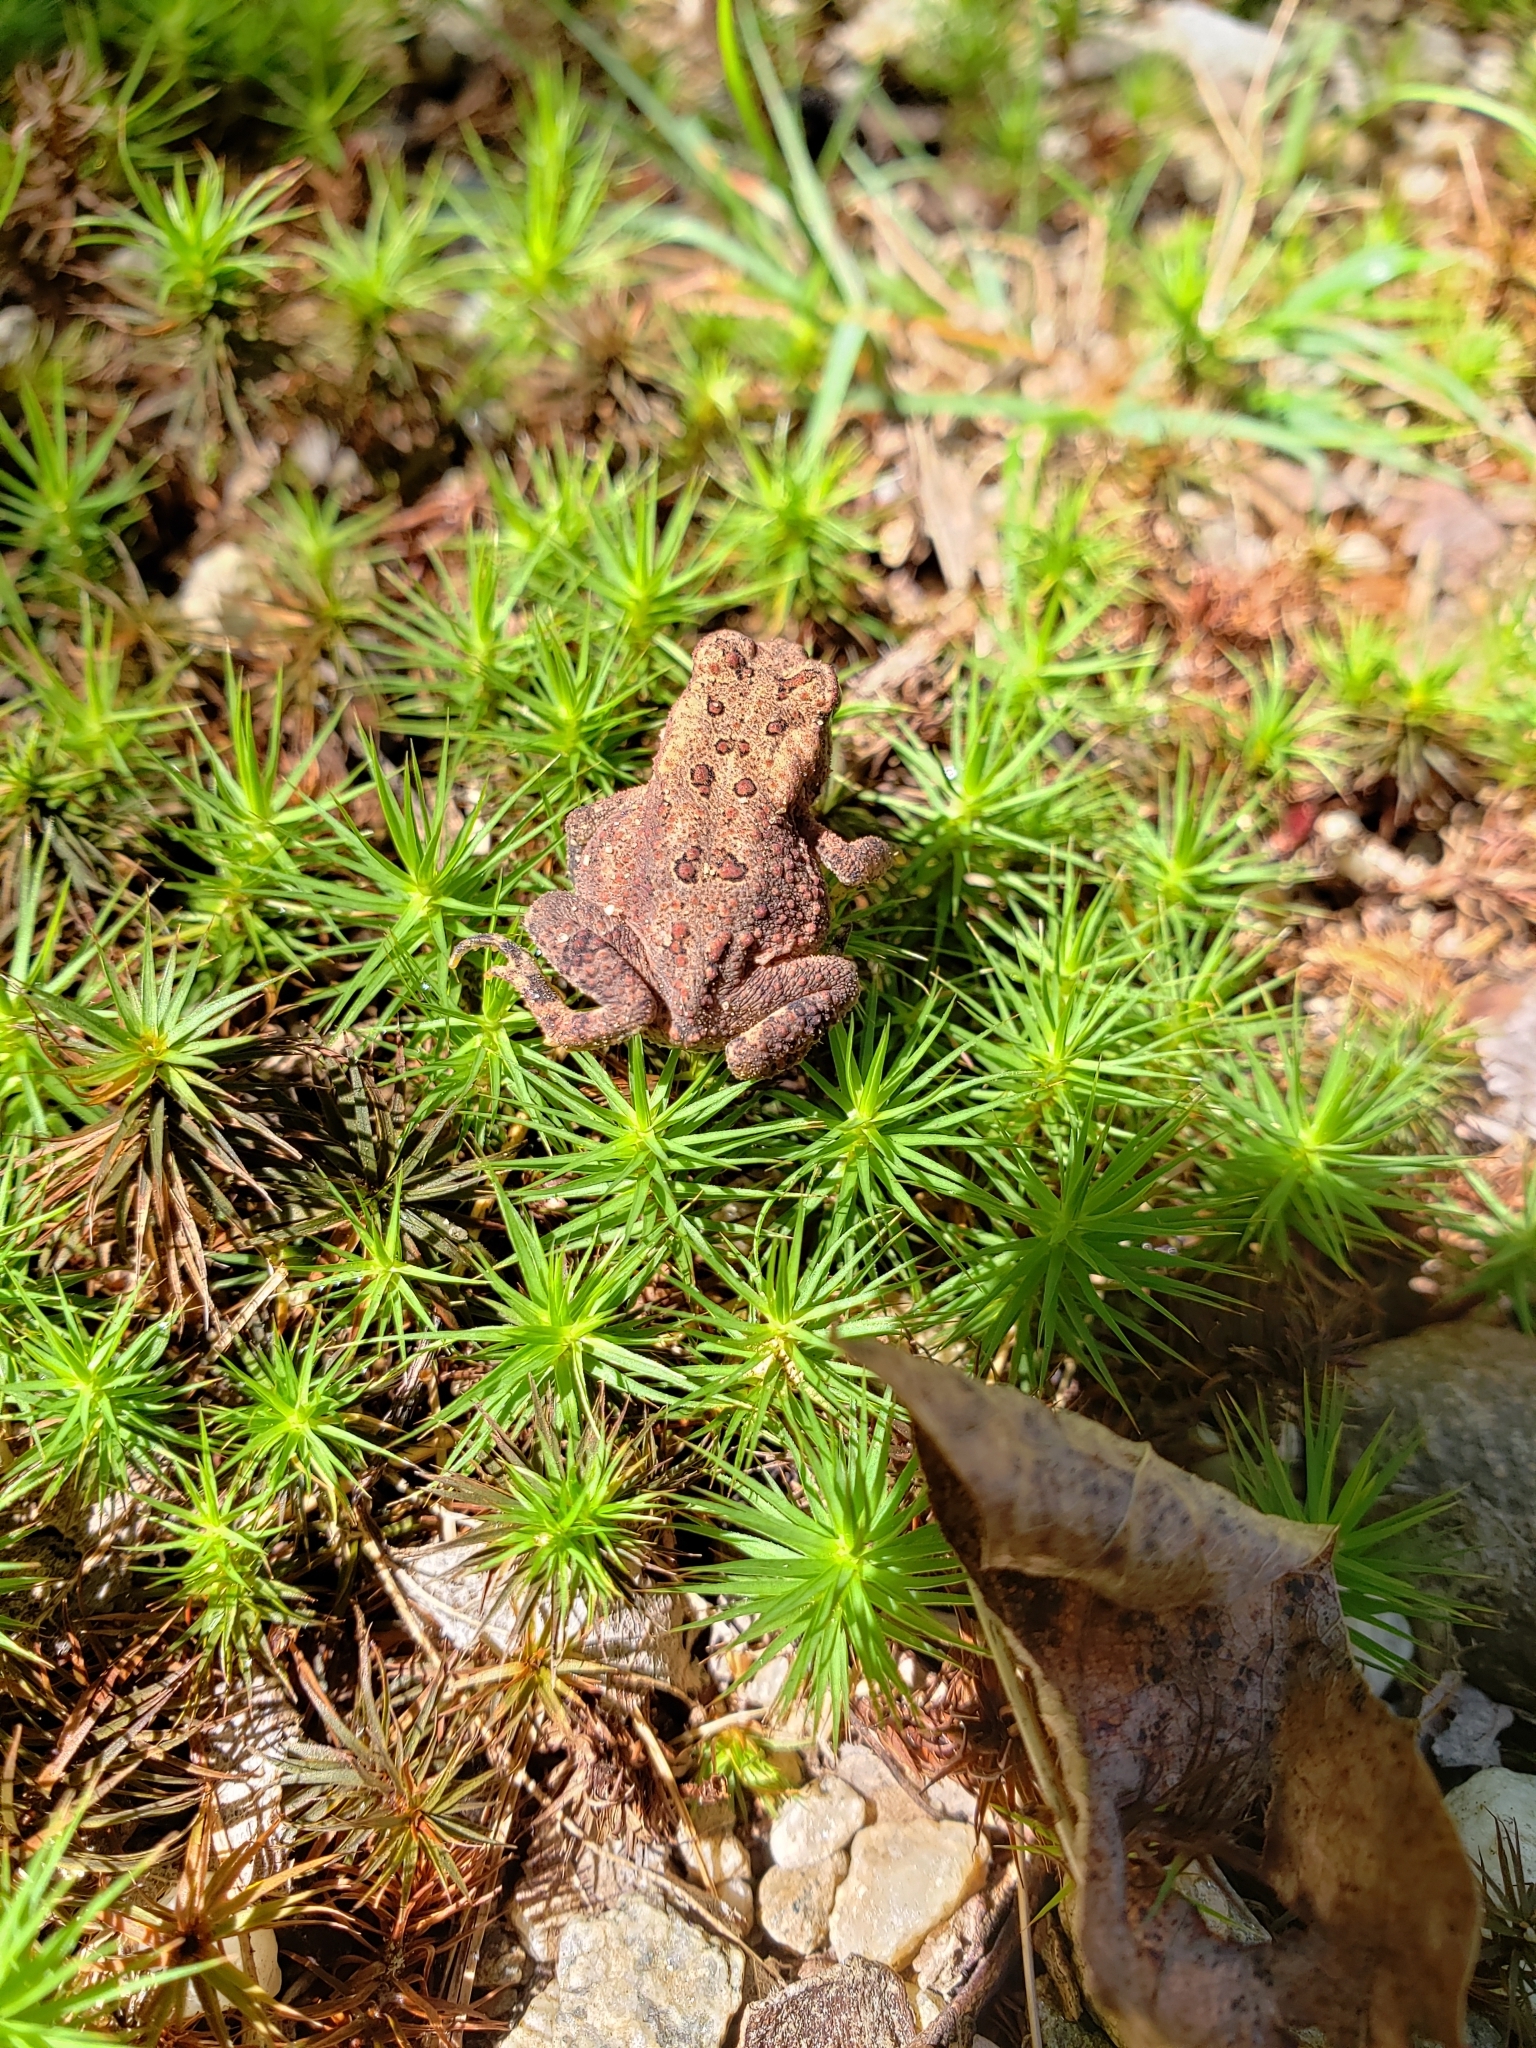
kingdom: Animalia
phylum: Chordata
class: Amphibia
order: Anura
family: Bufonidae
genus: Anaxyrus
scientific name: Anaxyrus americanus
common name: American toad
